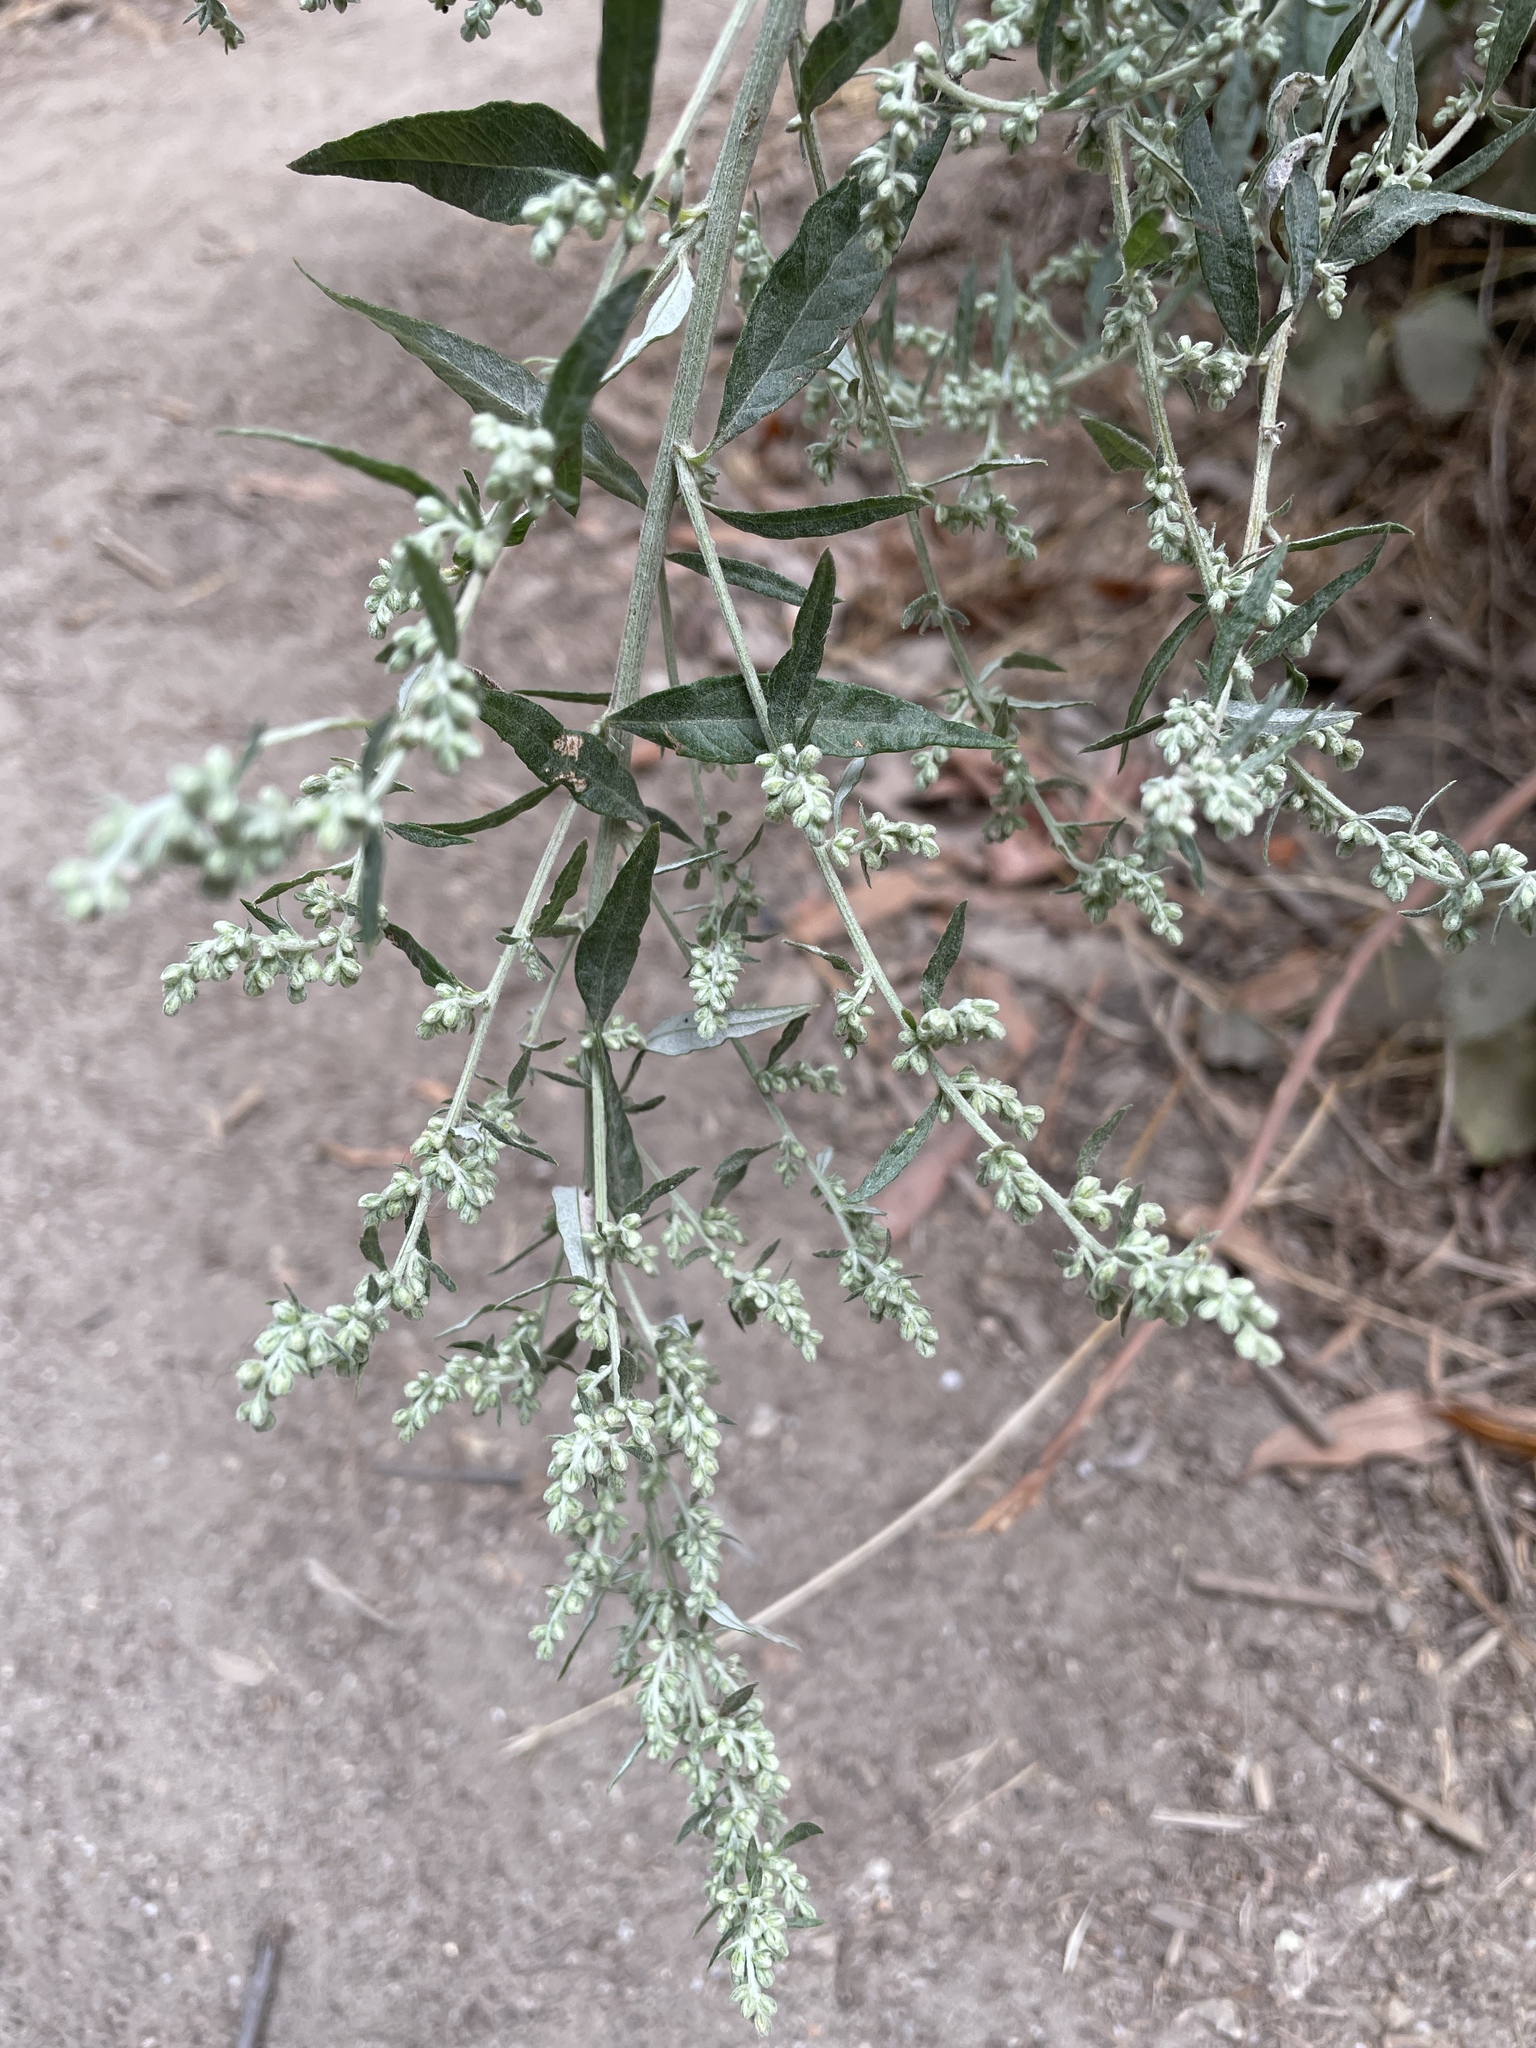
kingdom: Plantae
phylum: Tracheophyta
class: Magnoliopsida
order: Asterales
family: Asteraceae
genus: Artemisia
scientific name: Artemisia douglasiana
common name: Northwest mugwort
